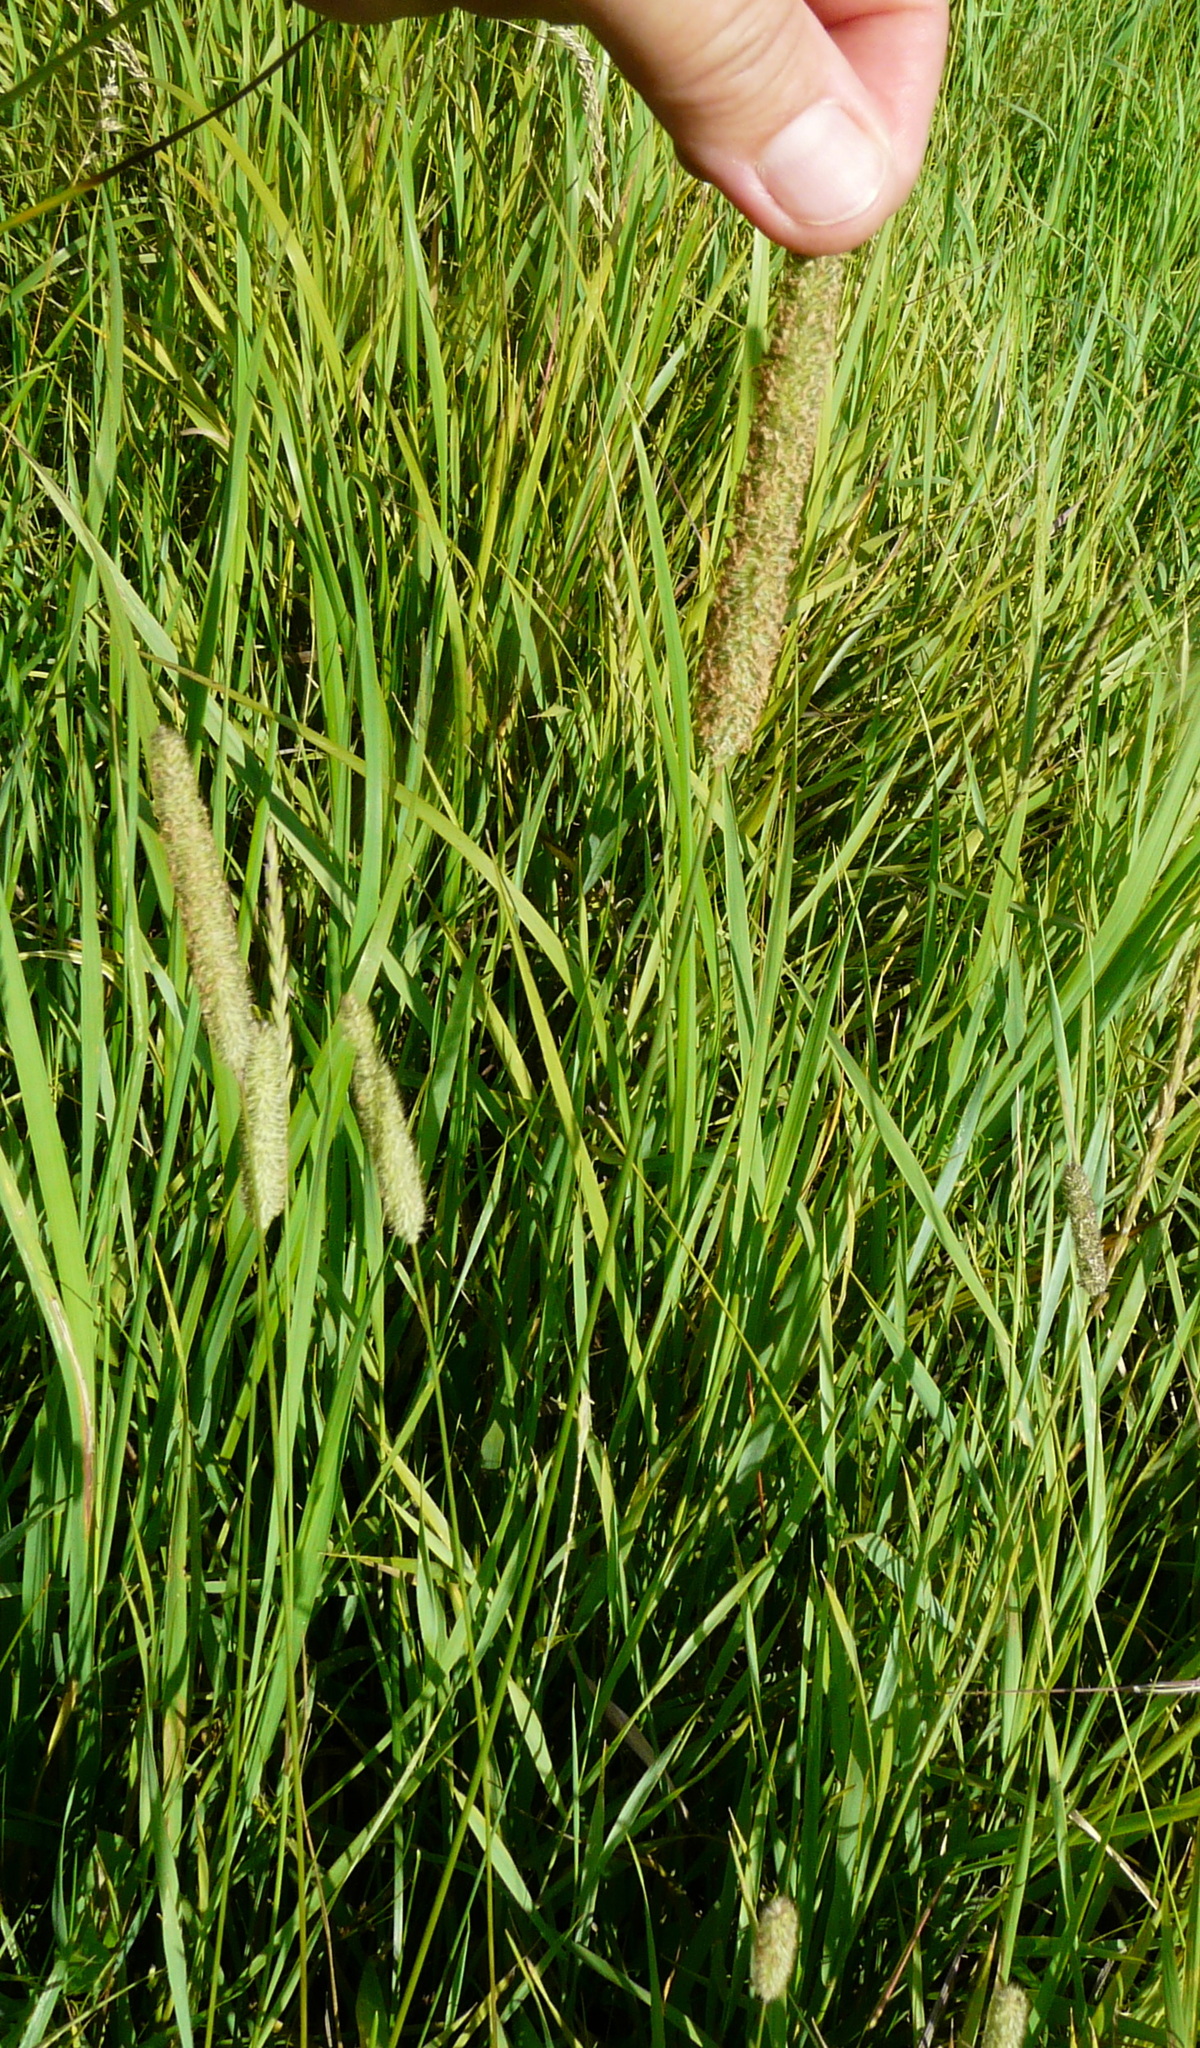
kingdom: Plantae
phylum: Tracheophyta
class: Liliopsida
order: Poales
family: Poaceae
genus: Phleum
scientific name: Phleum pratense
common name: Timothy grass
